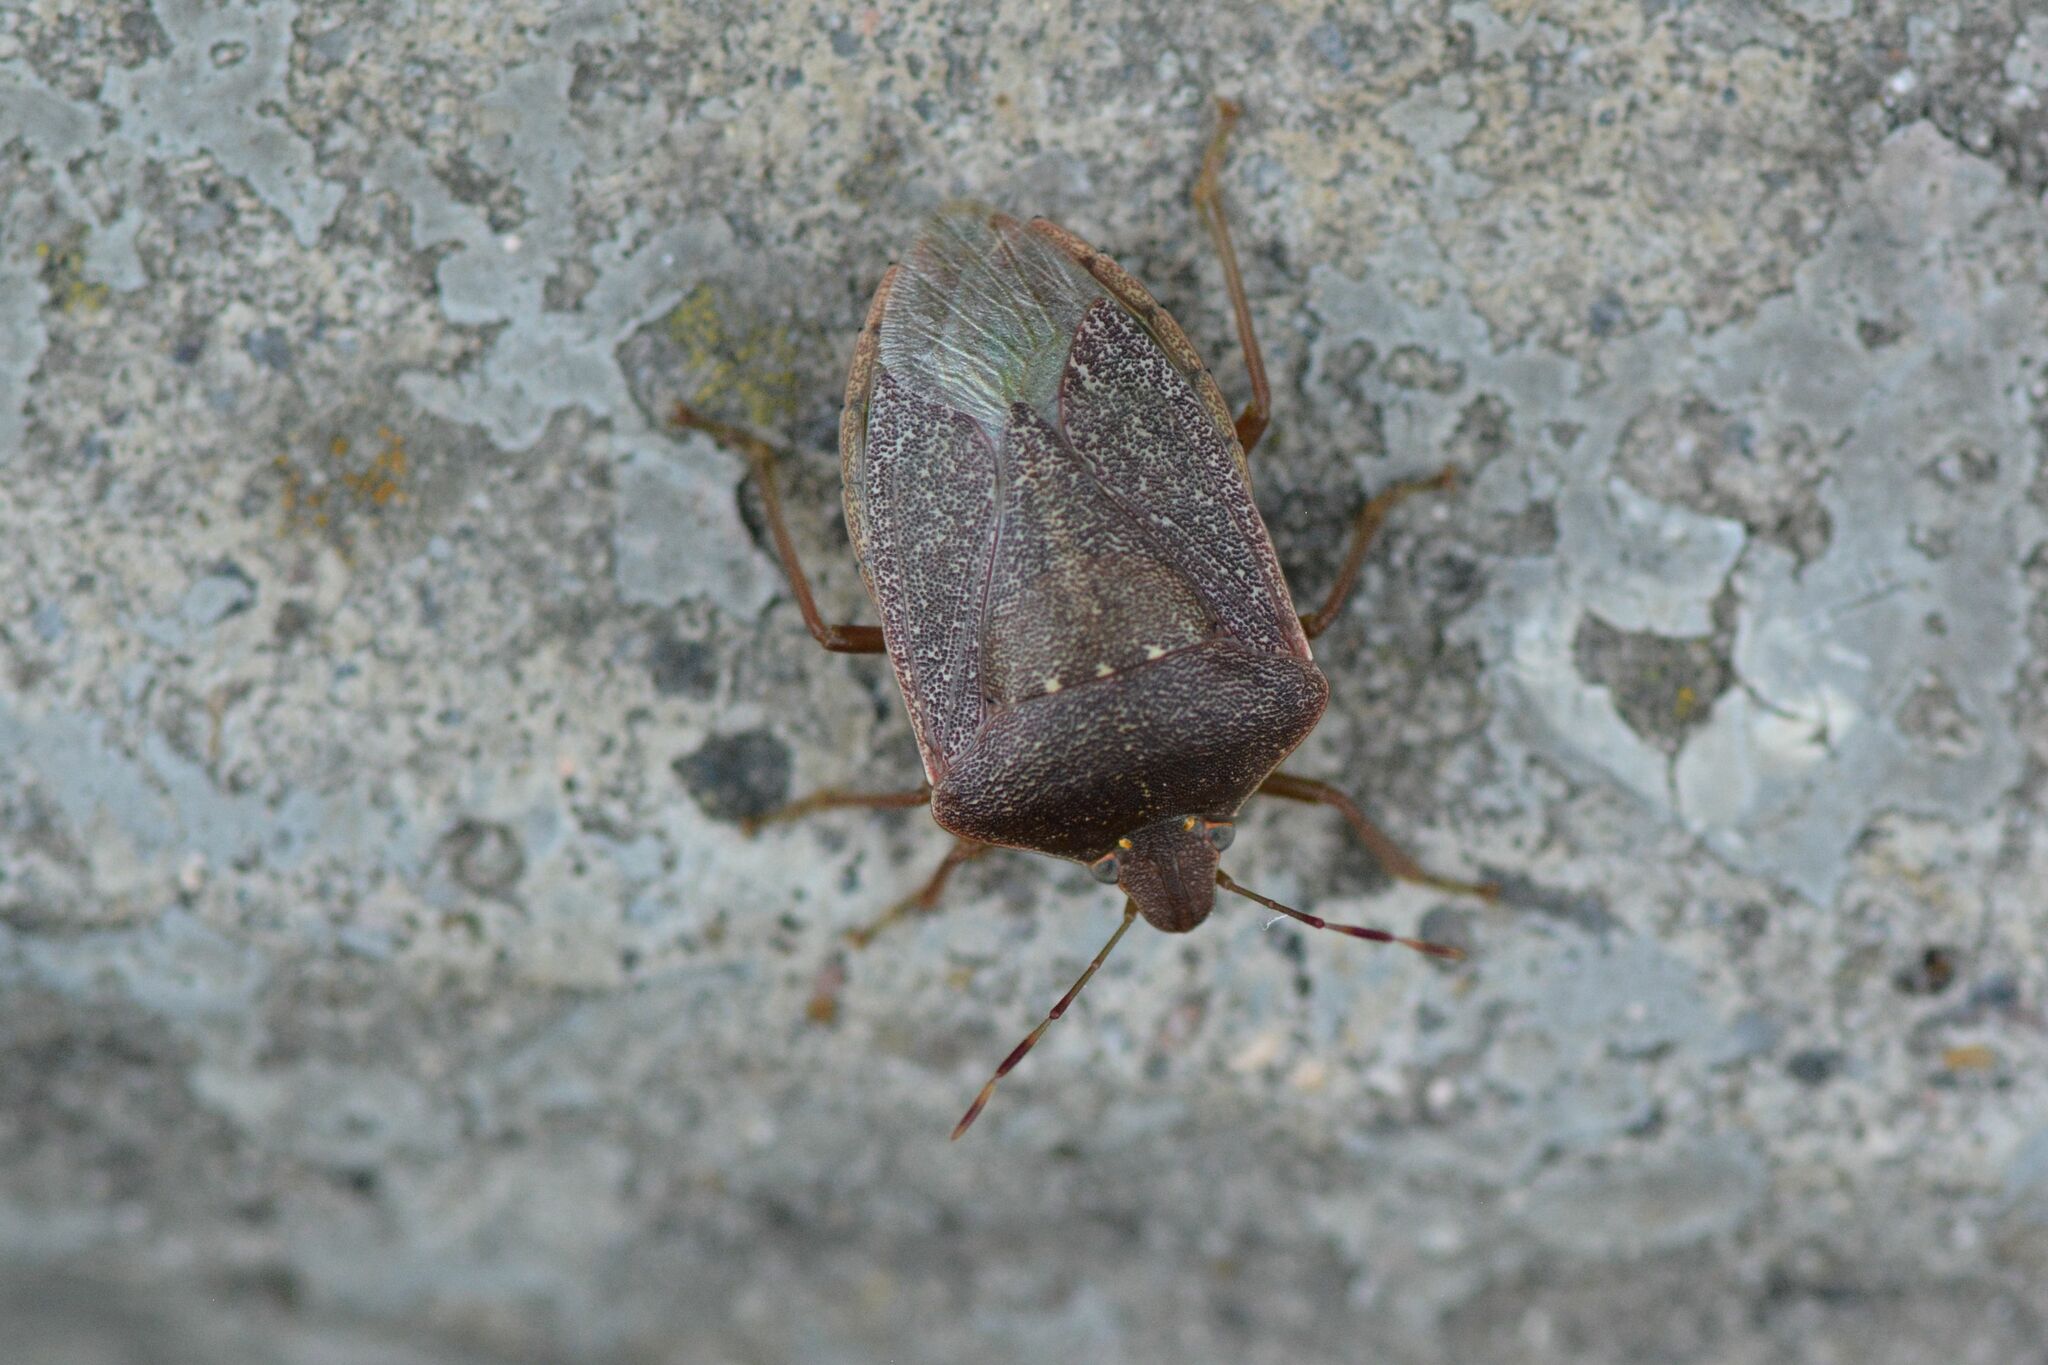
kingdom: Animalia
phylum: Arthropoda
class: Insecta
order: Hemiptera
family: Pentatomidae
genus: Nezara
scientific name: Nezara viridula
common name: Southern green stink bug
